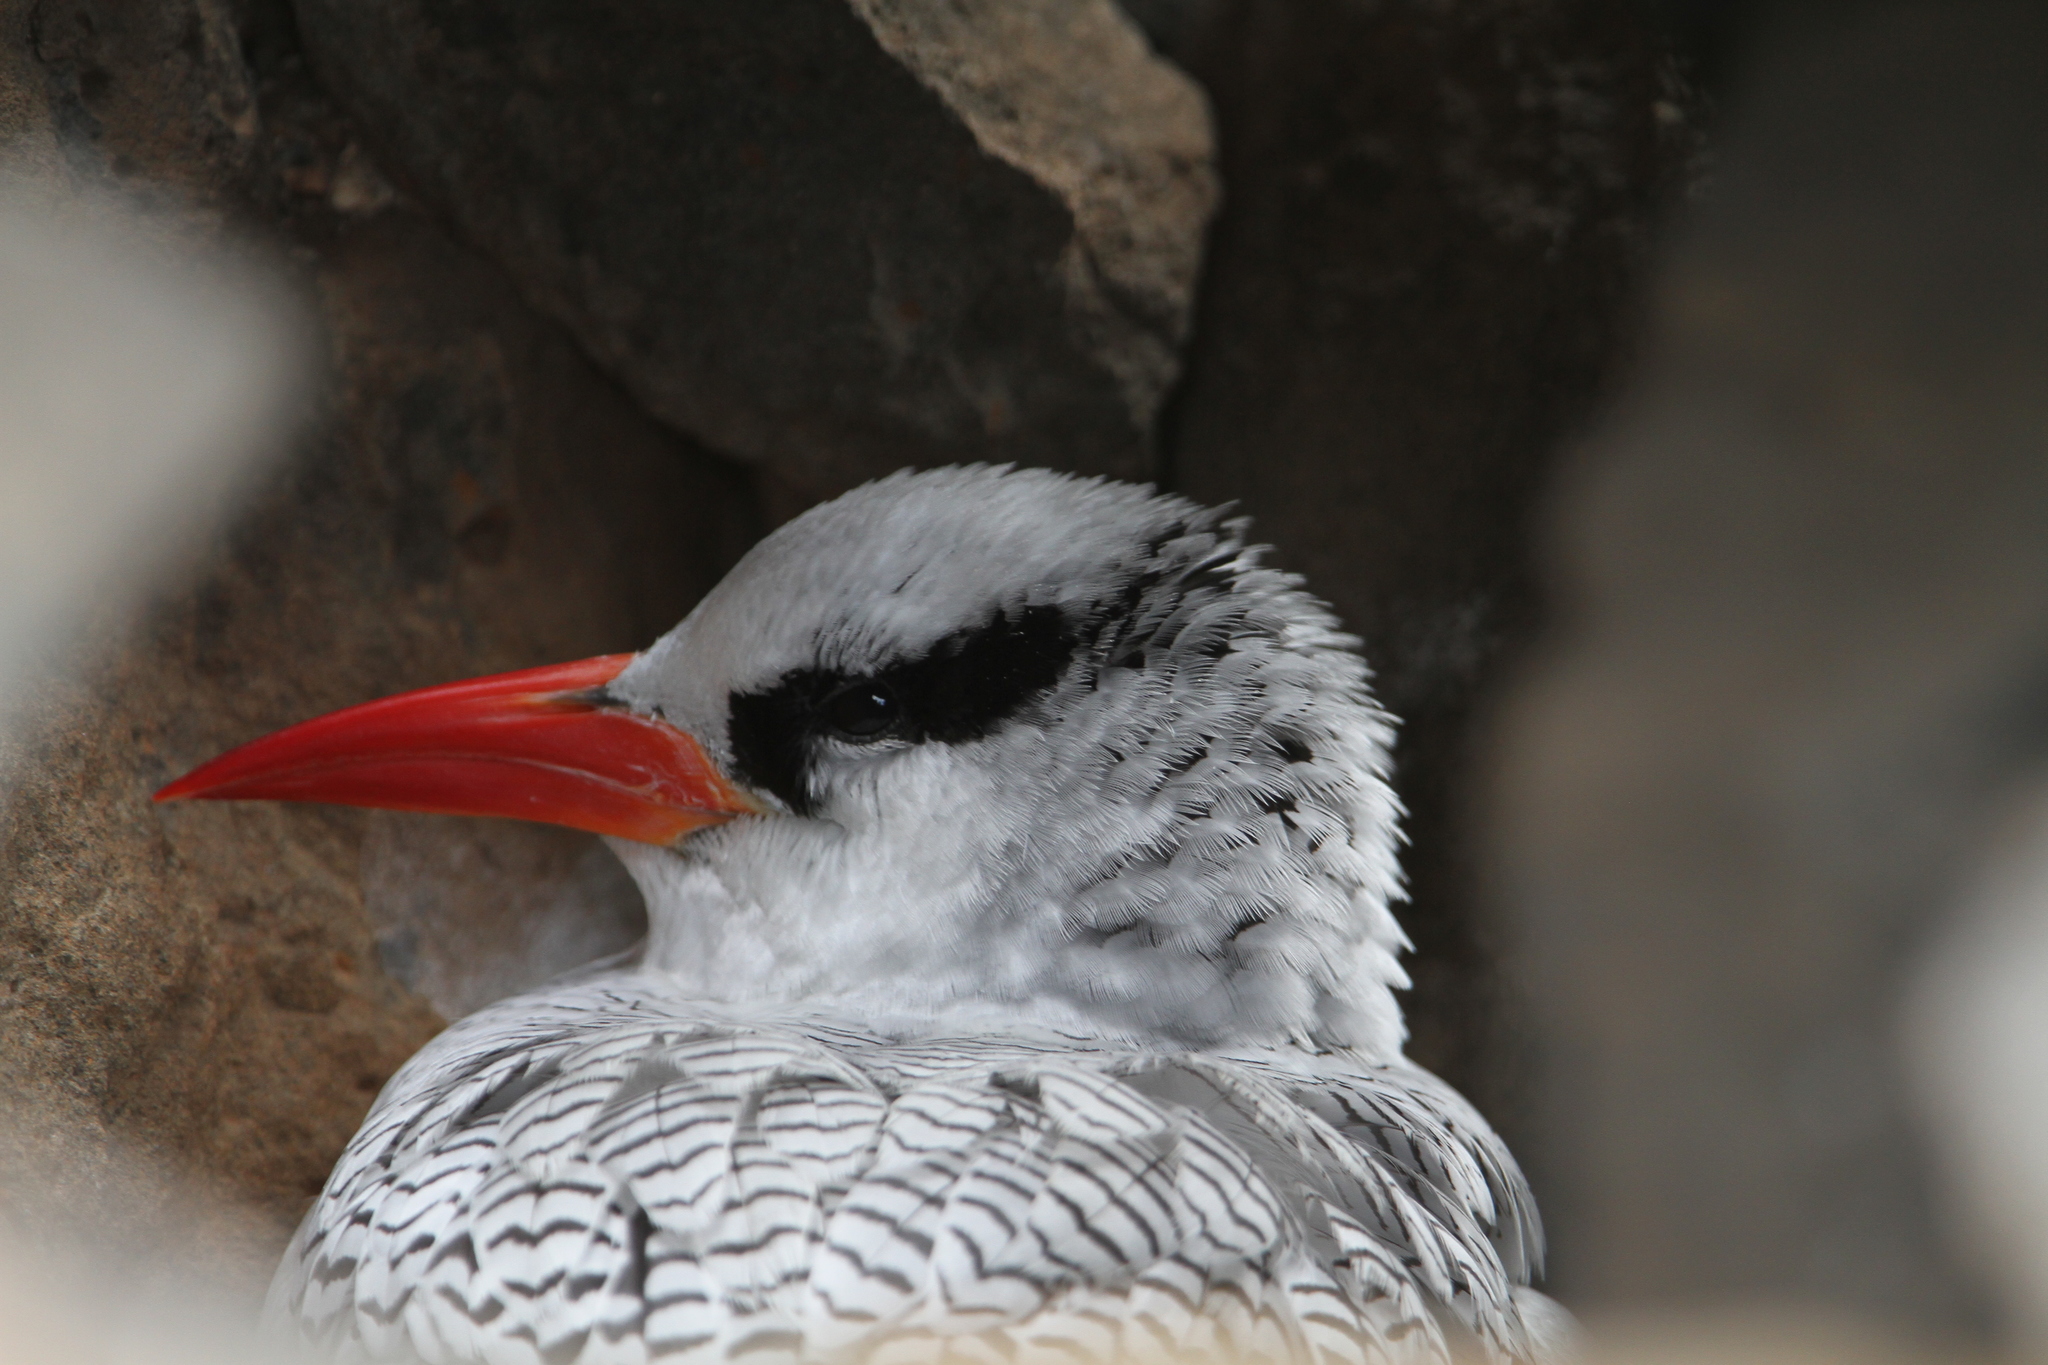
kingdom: Animalia
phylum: Chordata
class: Aves
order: Phaethontiformes
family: Phaethontidae
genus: Phaethon
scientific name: Phaethon aethereus
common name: Red-billed tropicbird
